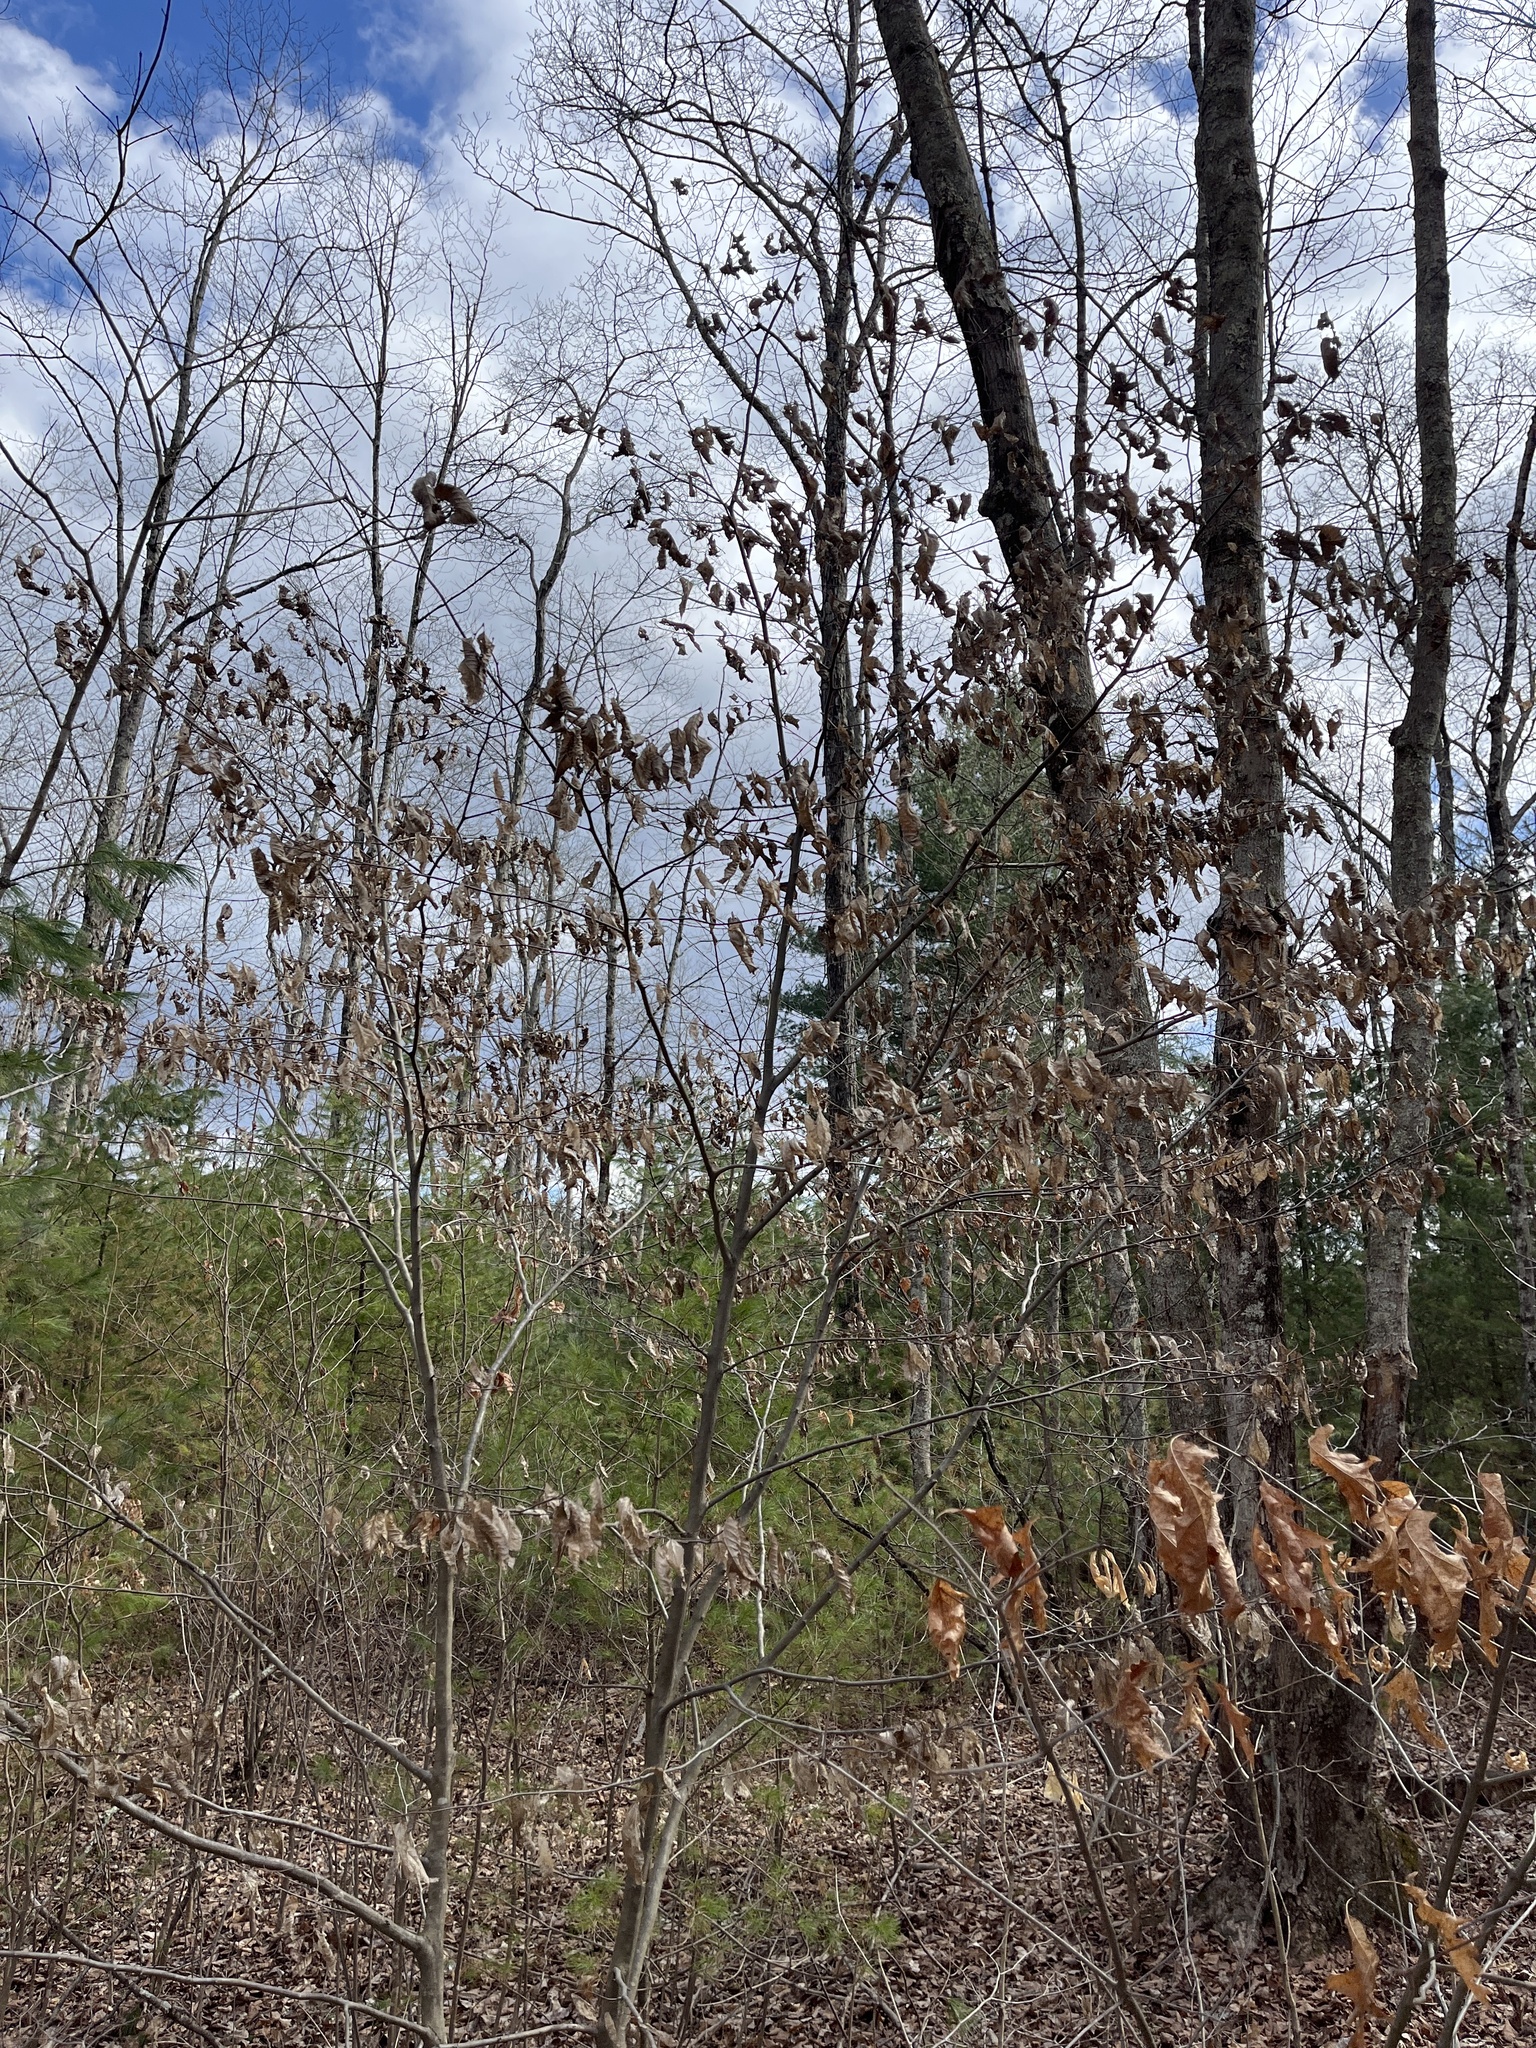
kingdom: Plantae
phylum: Tracheophyta
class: Magnoliopsida
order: Fagales
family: Betulaceae
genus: Carpinus
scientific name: Carpinus caroliniana
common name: American hornbeam
